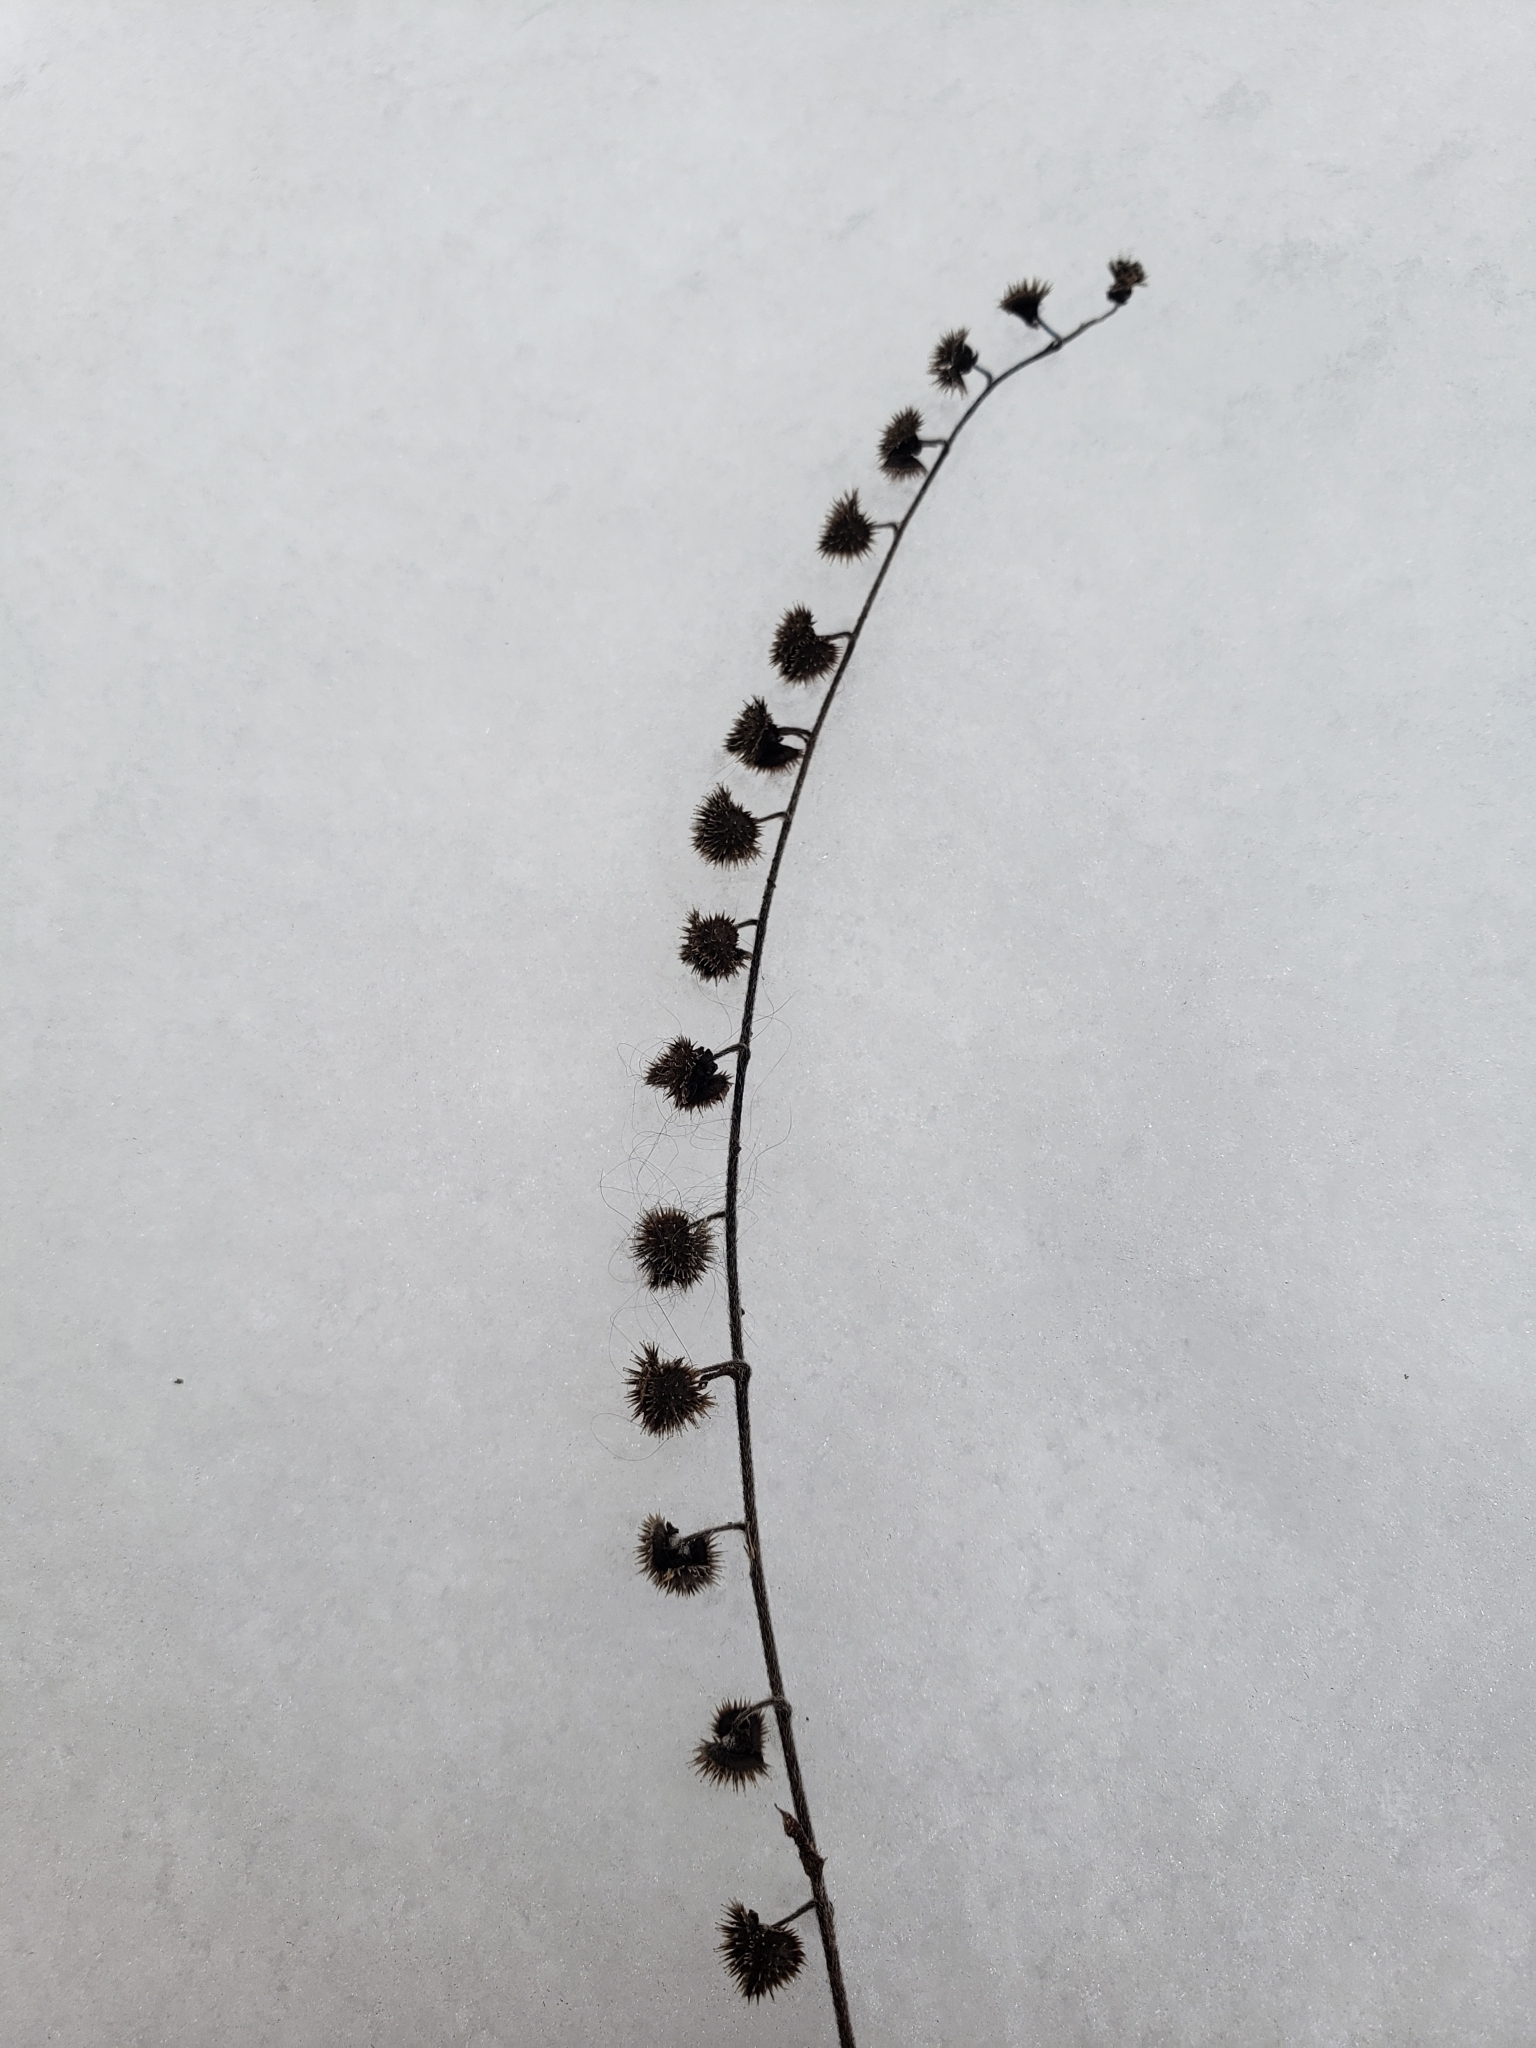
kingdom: Plantae
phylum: Tracheophyta
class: Magnoliopsida
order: Boraginales
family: Boraginaceae
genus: Hackelia
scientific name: Hackelia virginiana
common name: Beggar's-lice
